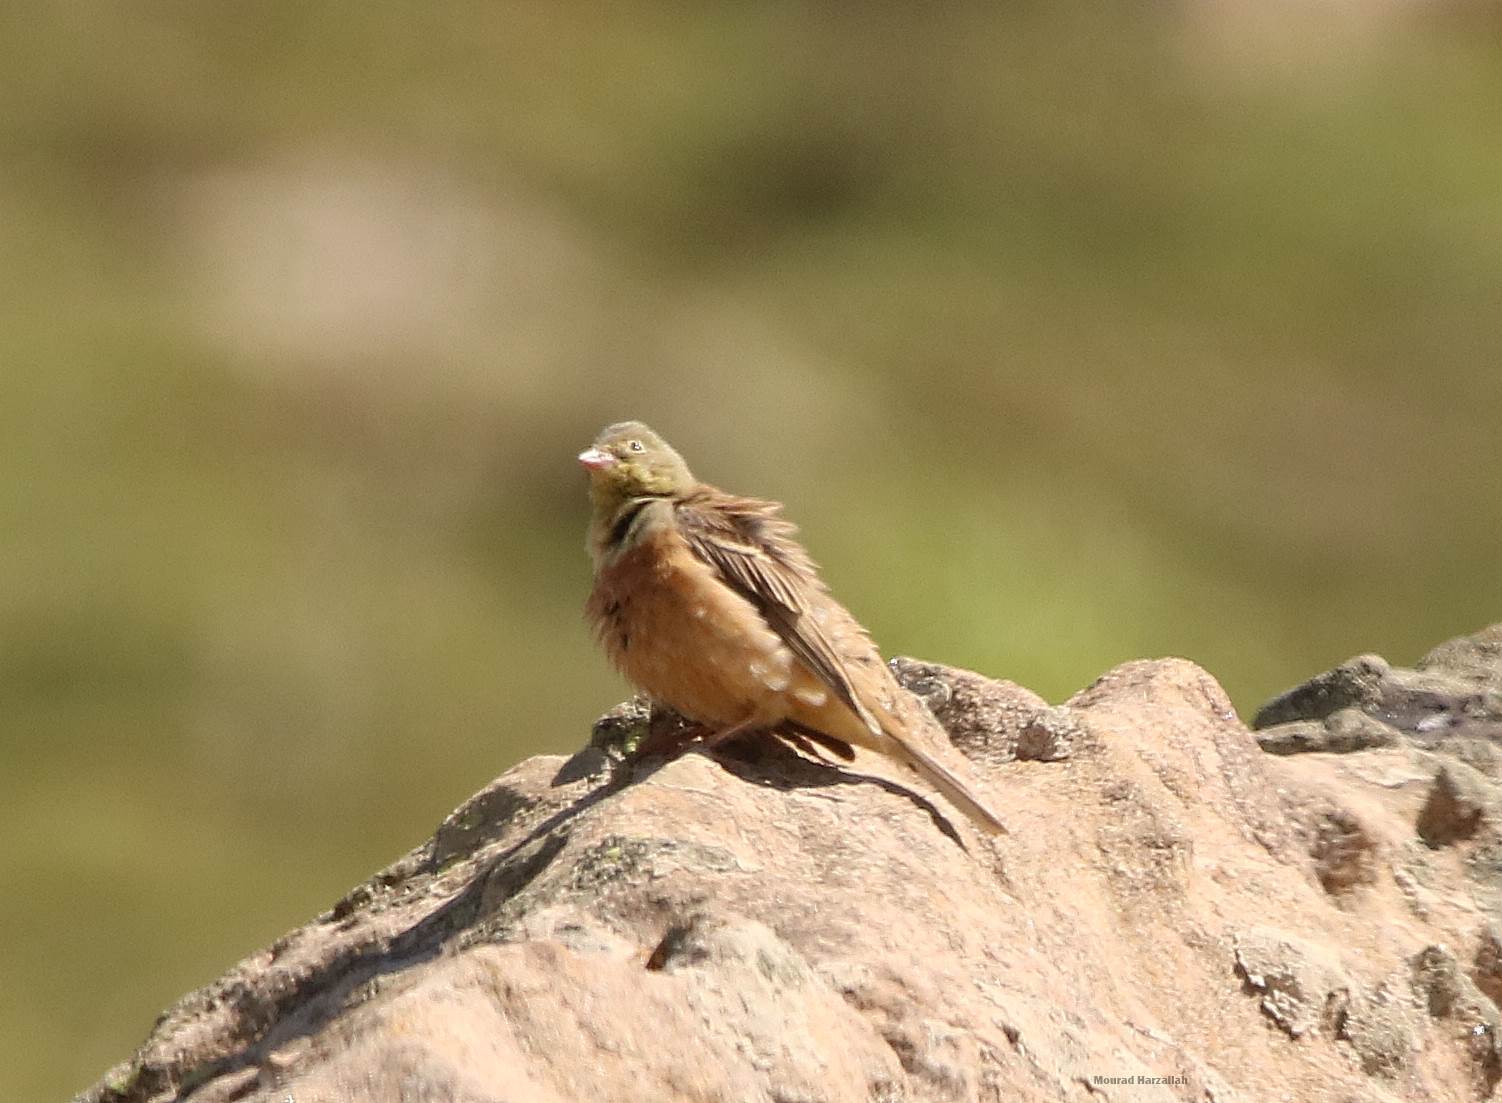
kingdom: Animalia
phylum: Chordata
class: Aves
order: Passeriformes
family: Emberizidae
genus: Emberiza
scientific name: Emberiza hortulana
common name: Ortolan bunting
